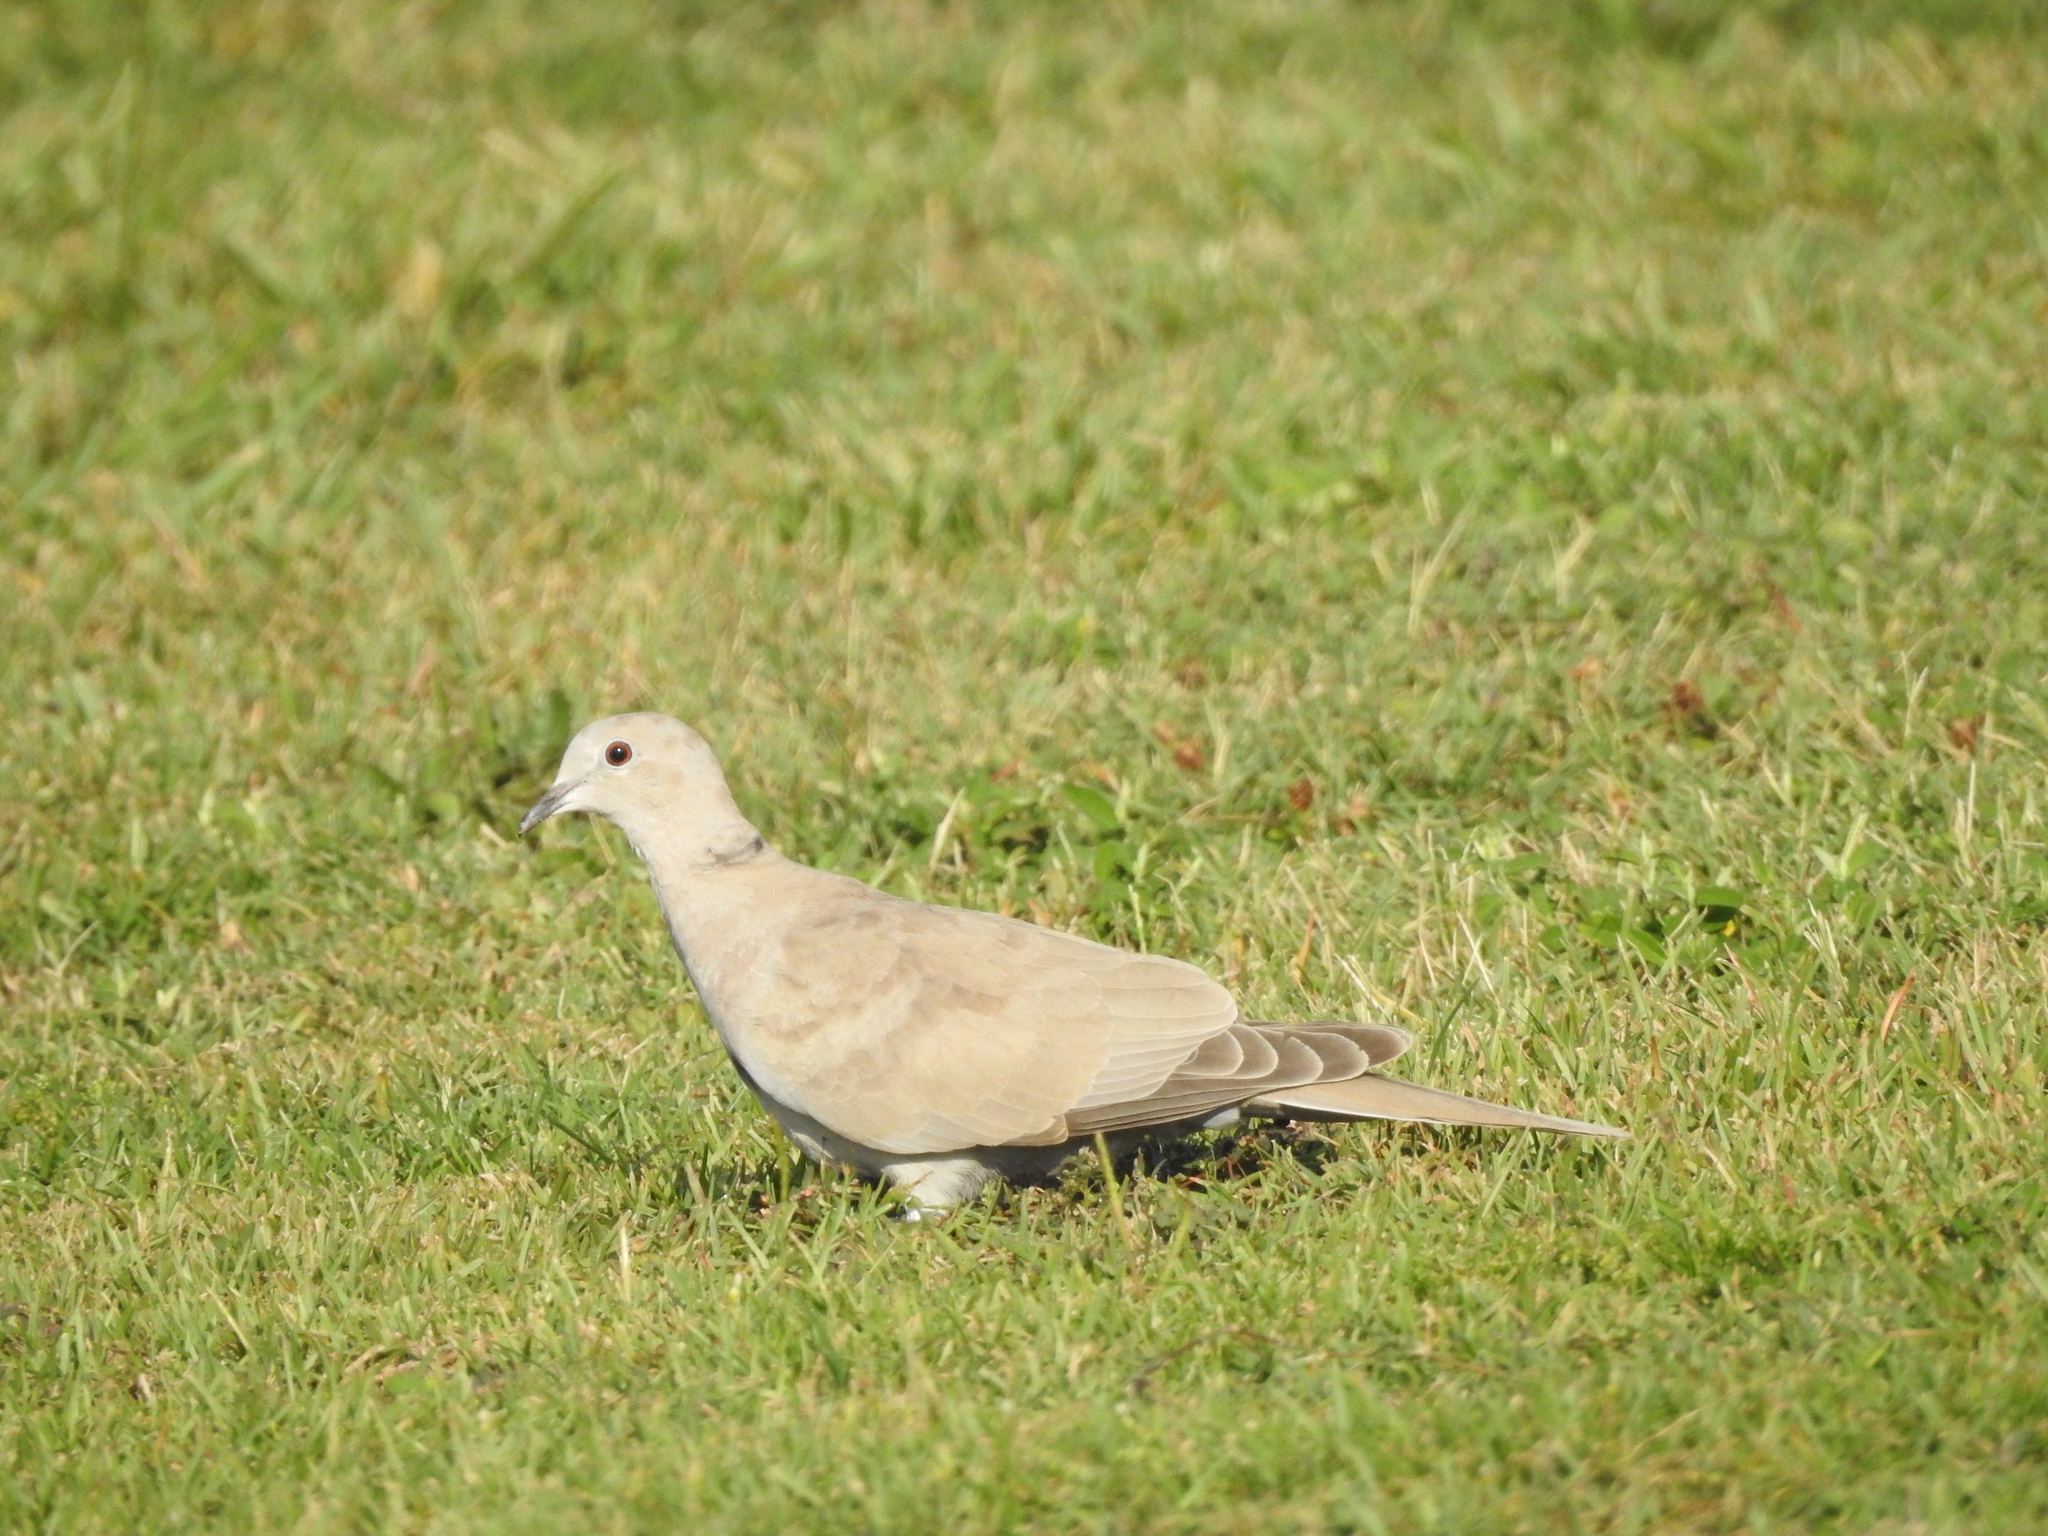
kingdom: Animalia
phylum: Chordata
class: Aves
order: Columbiformes
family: Columbidae
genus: Streptopelia
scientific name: Streptopelia decaocto
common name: Eurasian collared dove
